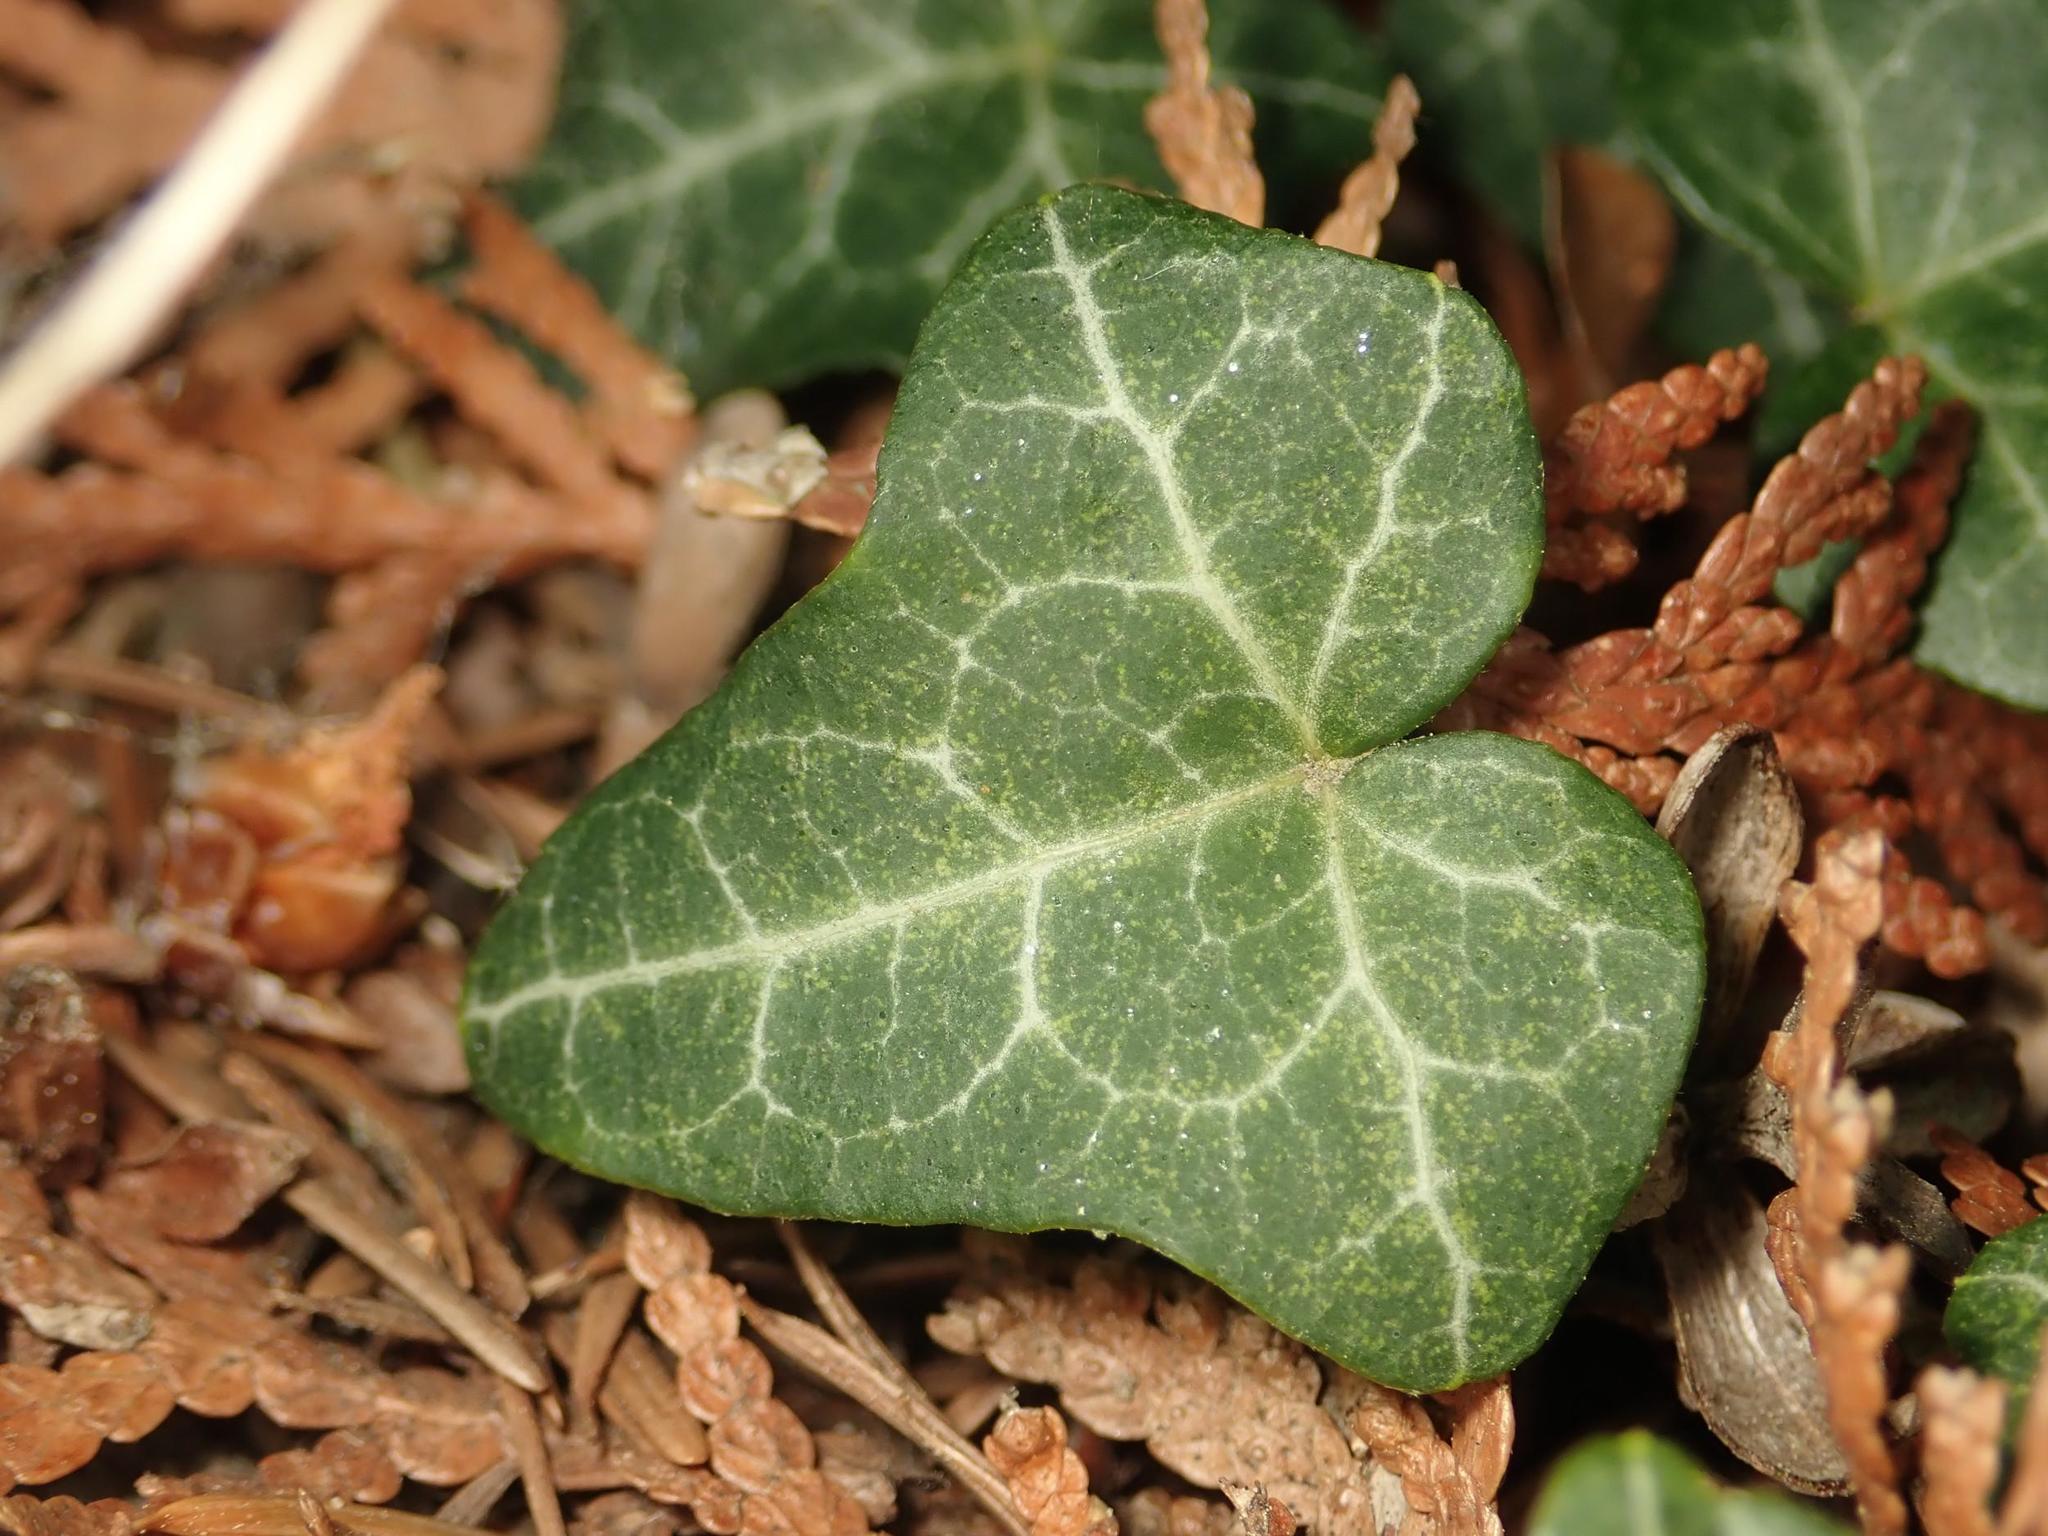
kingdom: Plantae
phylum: Tracheophyta
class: Magnoliopsida
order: Apiales
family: Araliaceae
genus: Hedera
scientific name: Hedera helix
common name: Ivy
